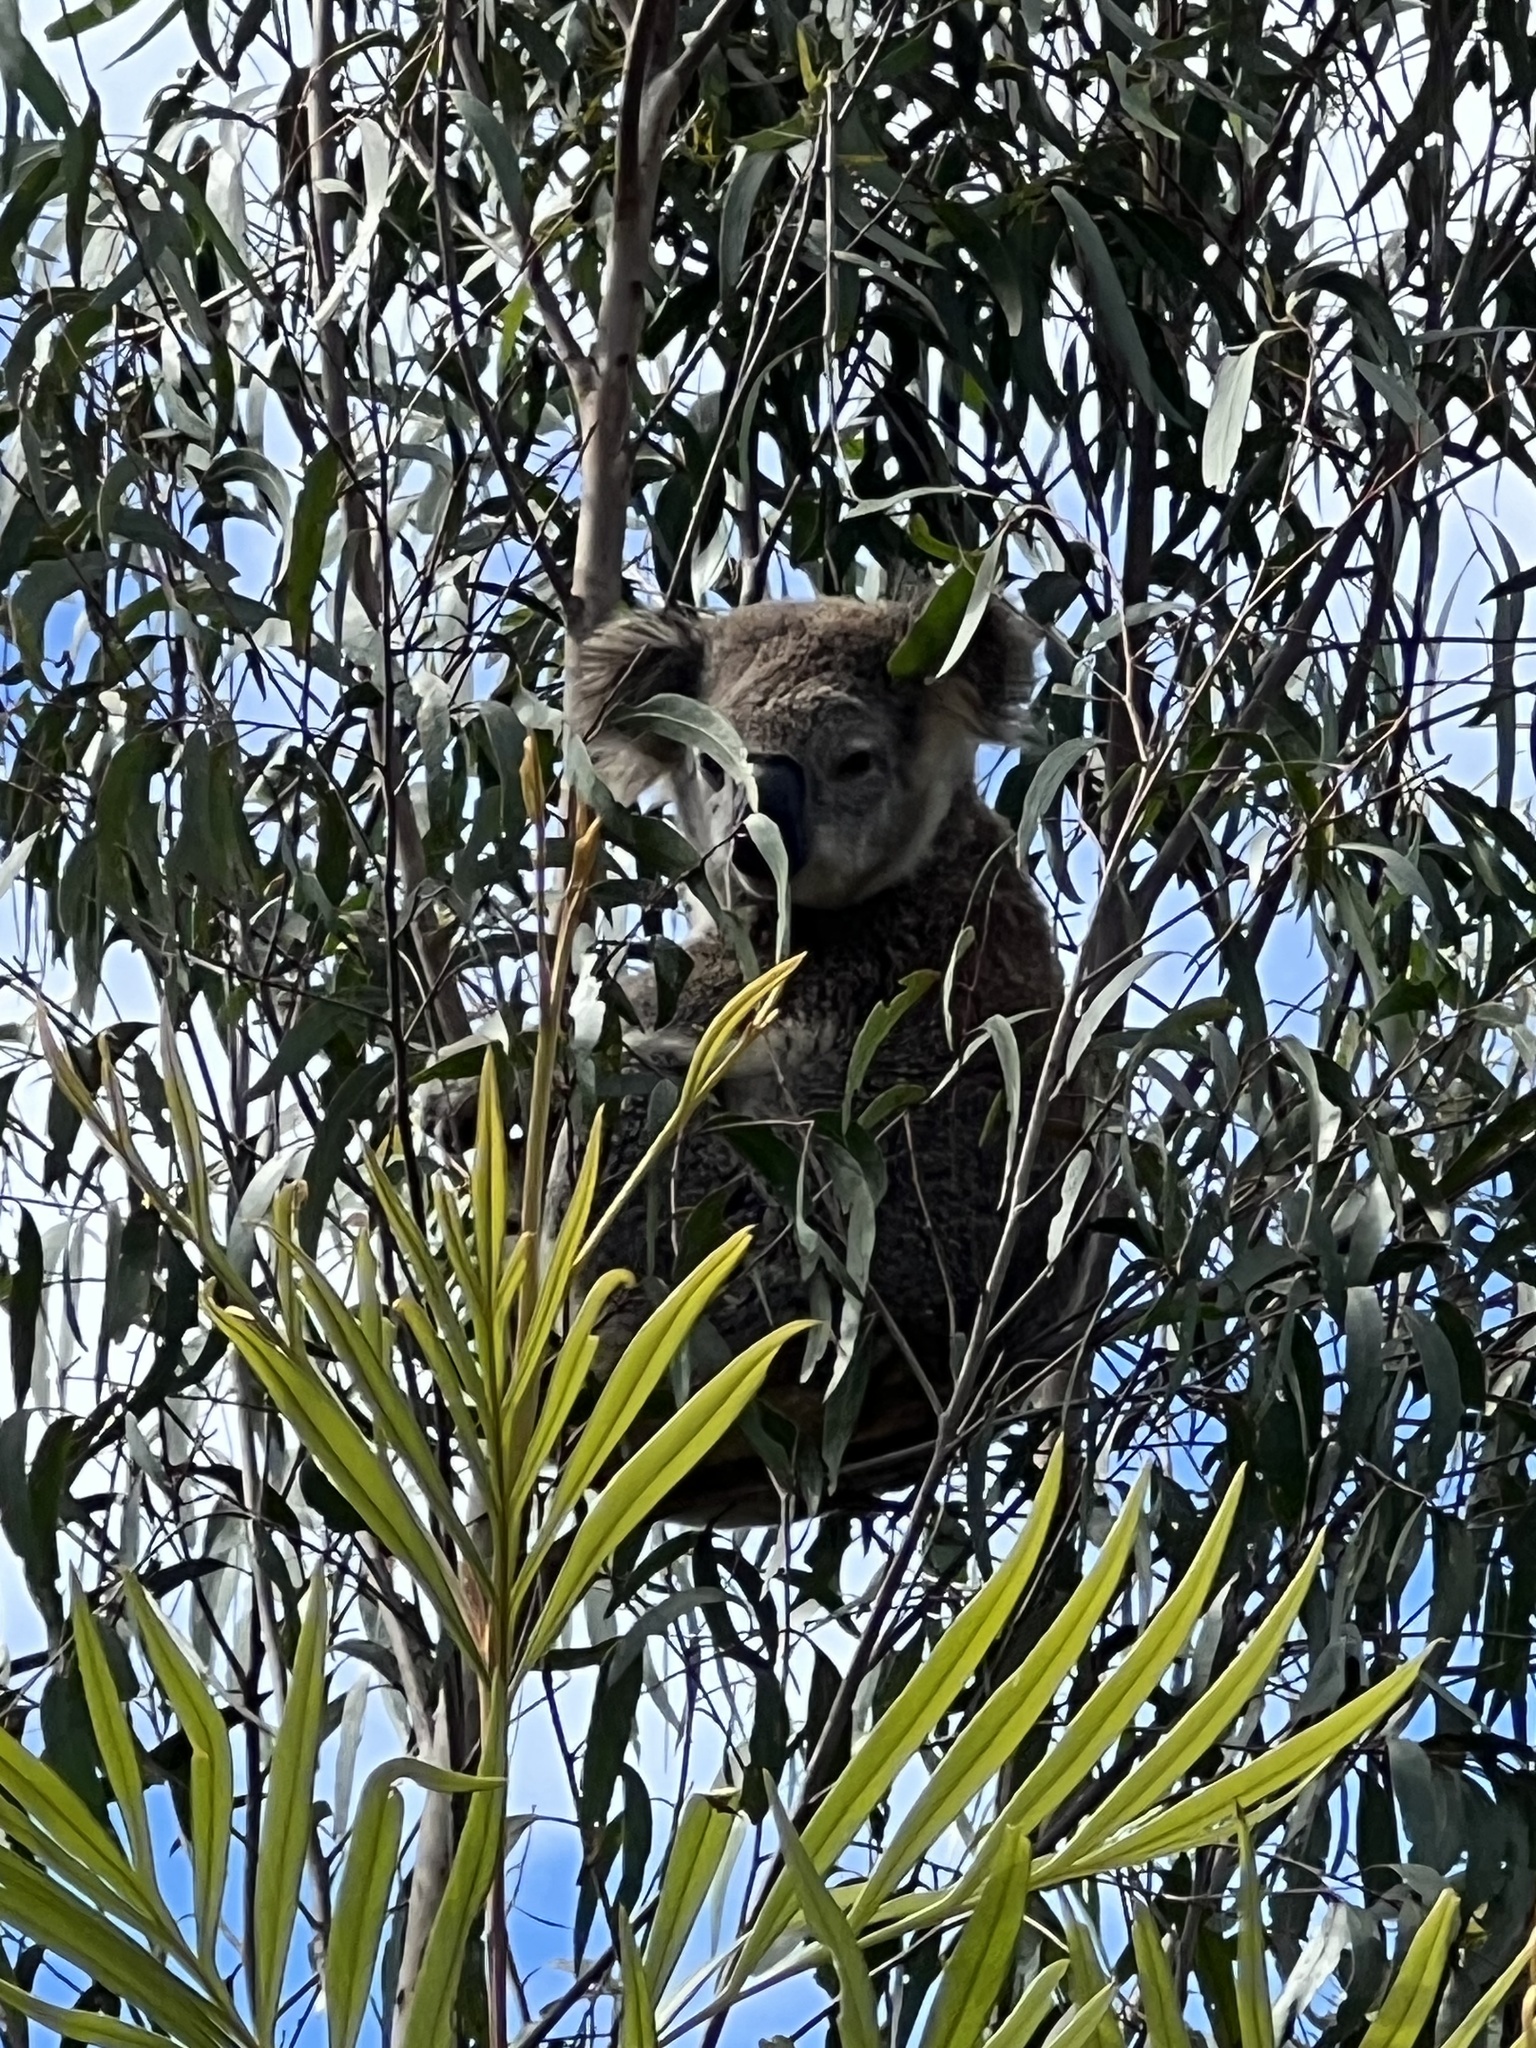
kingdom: Animalia
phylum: Chordata
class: Mammalia
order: Diprotodontia
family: Phascolarctidae
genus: Phascolarctos
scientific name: Phascolarctos cinereus
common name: Koala
